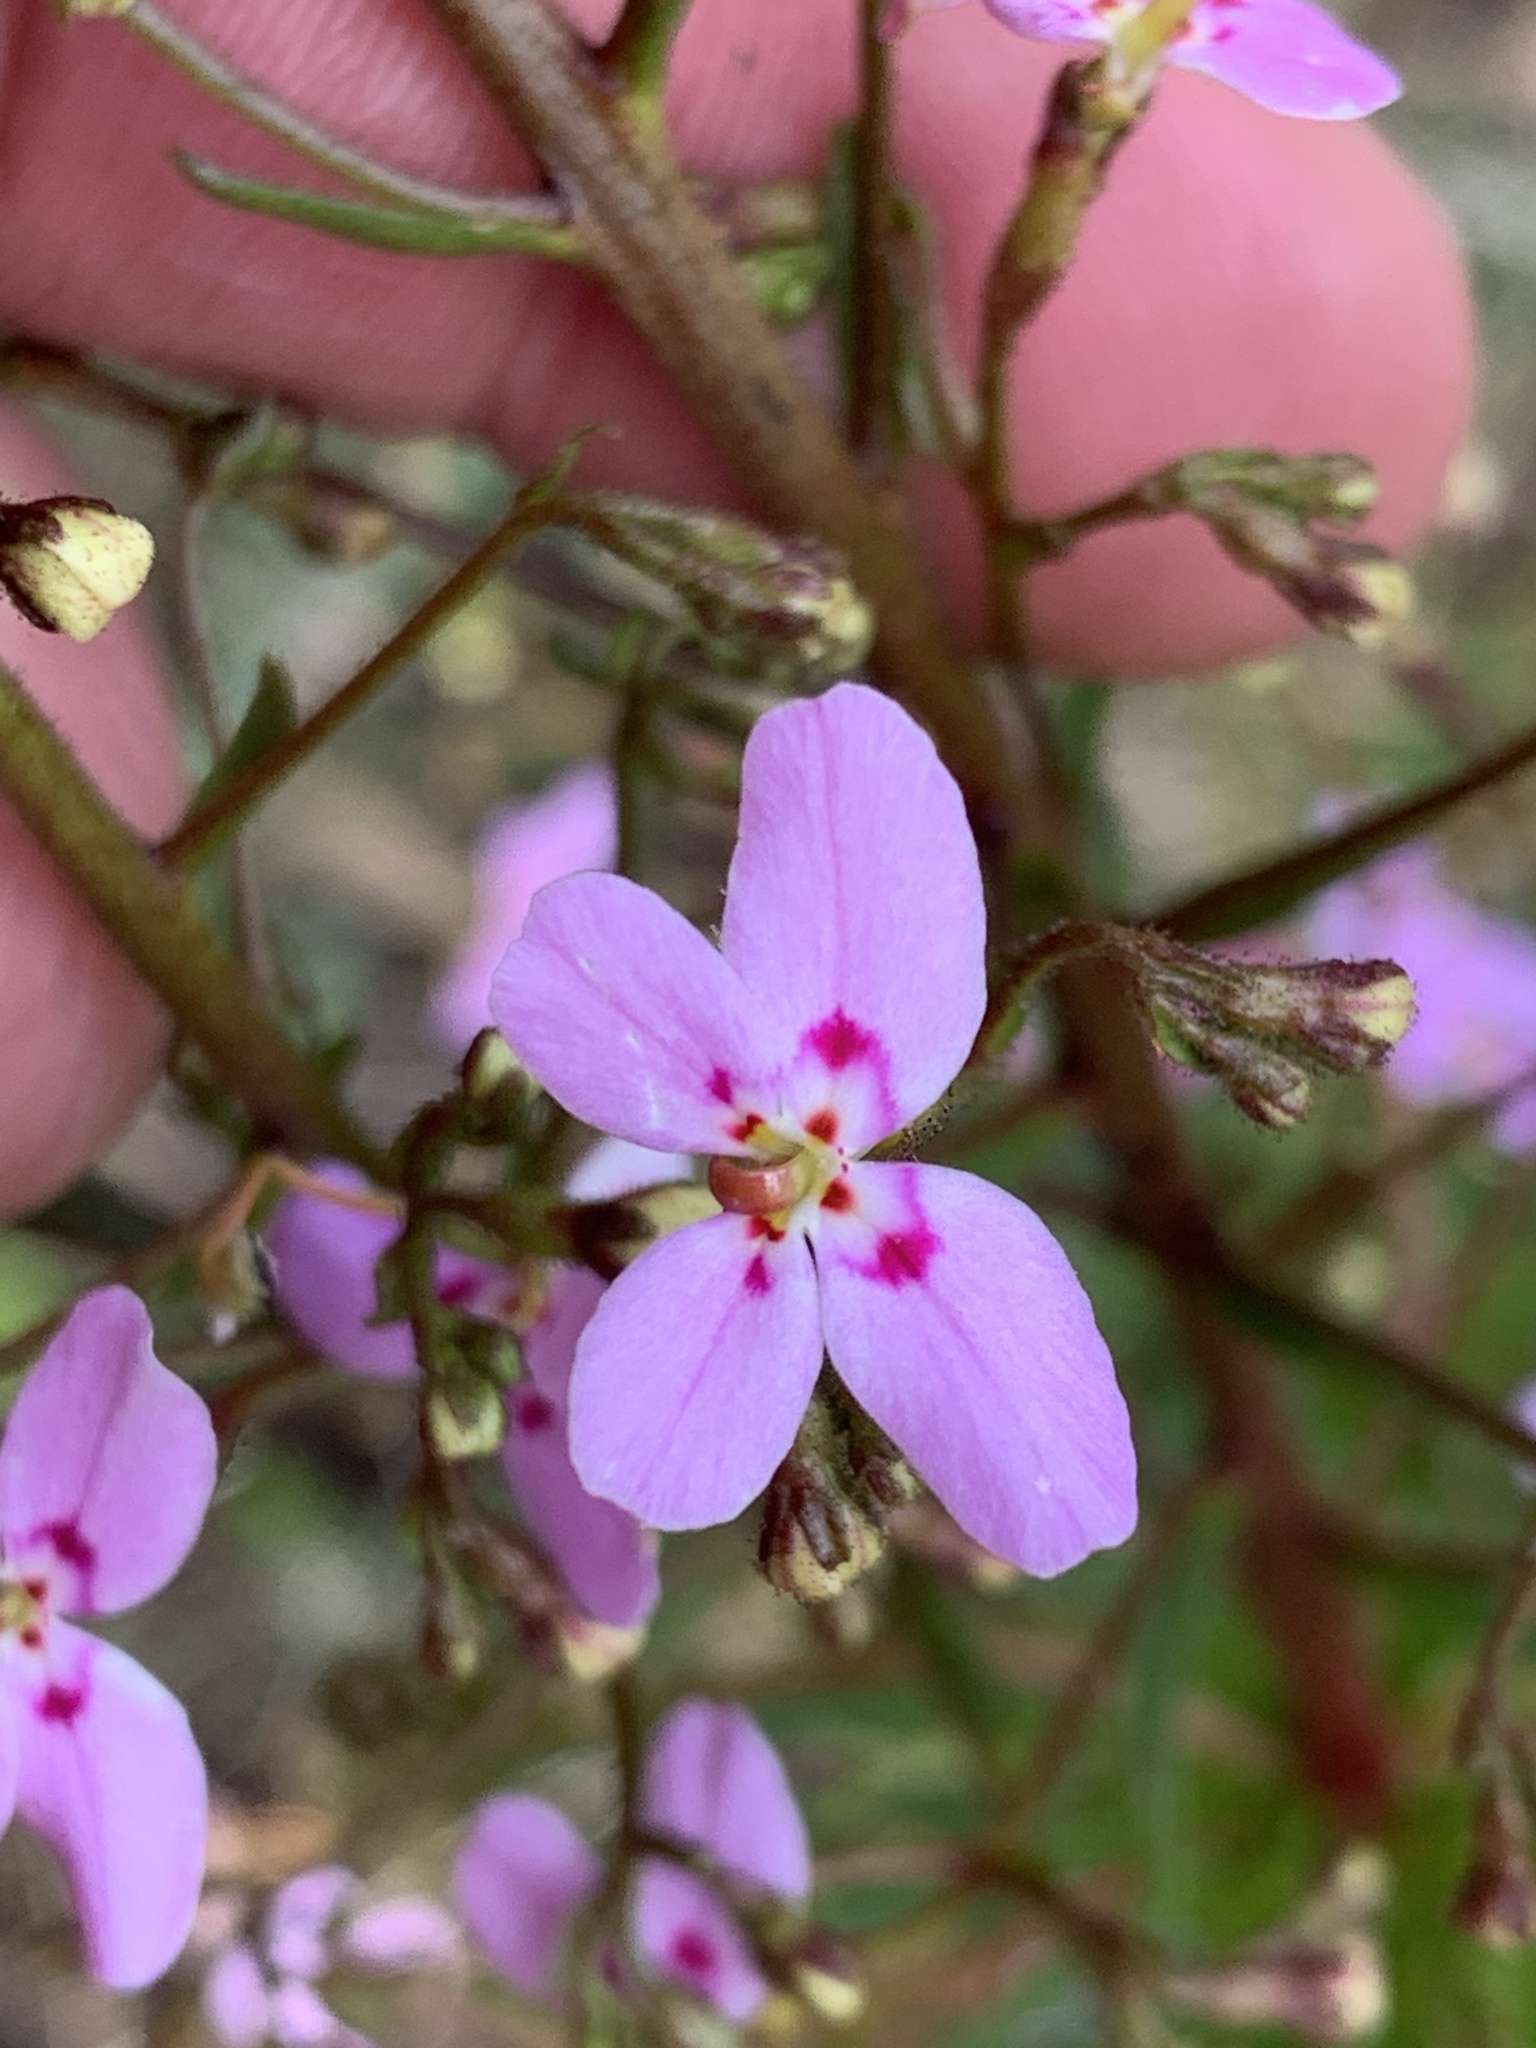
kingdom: Plantae
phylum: Tracheophyta
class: Magnoliopsida
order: Asterales
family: Stylidiaceae
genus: Stylidium
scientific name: Stylidium laricifolium
